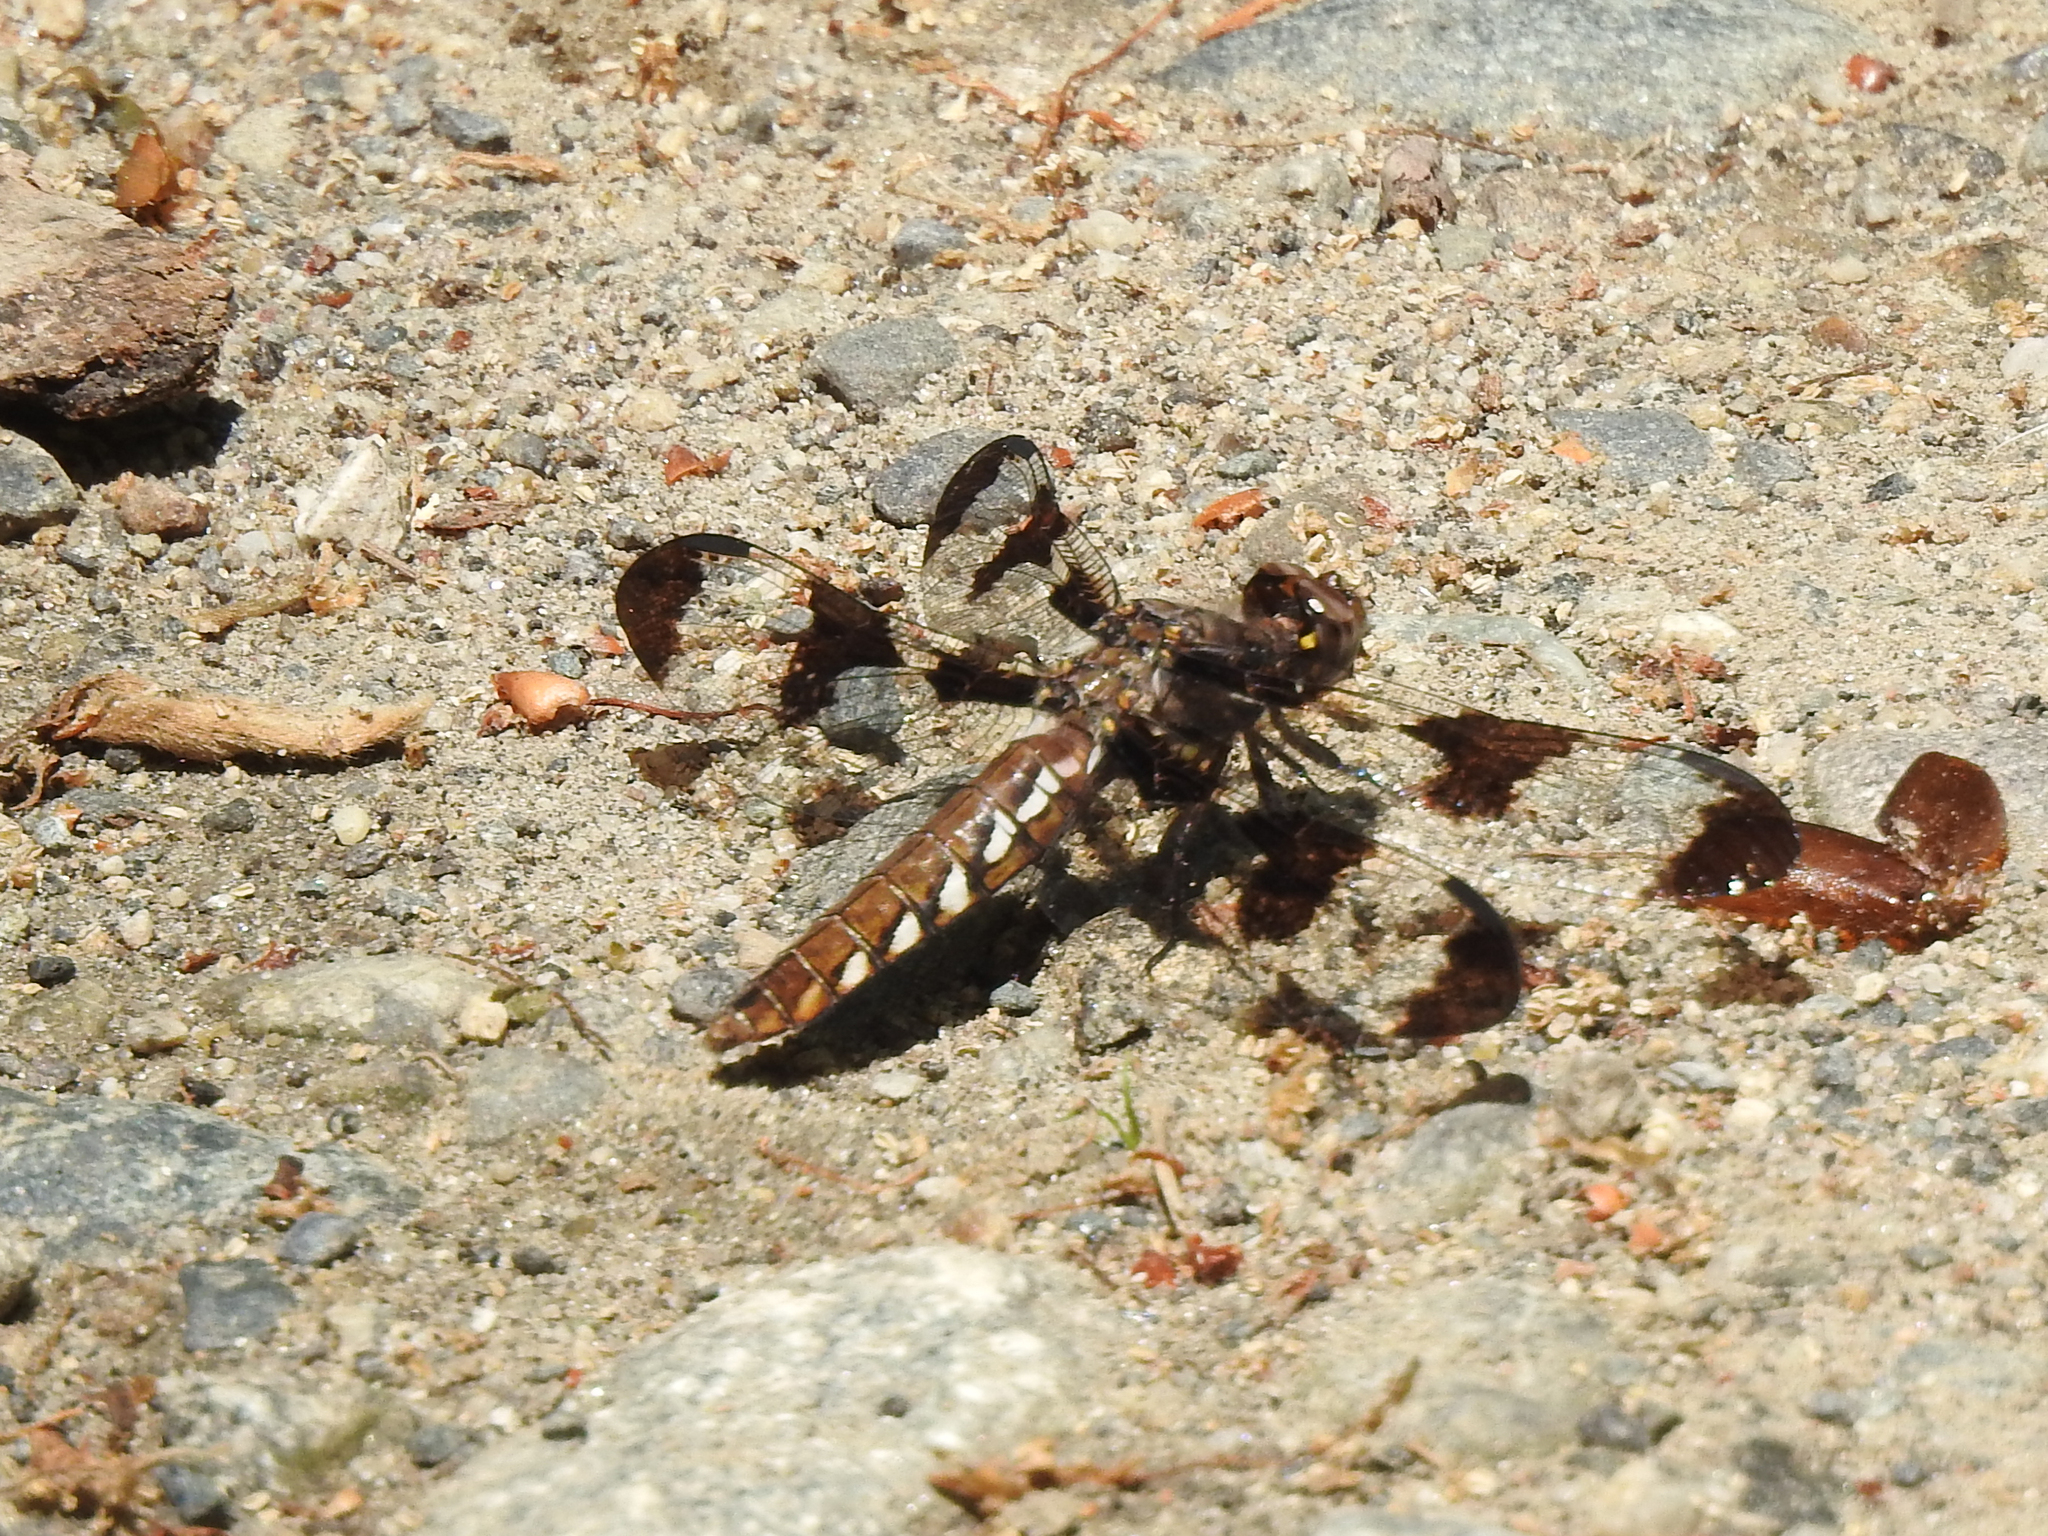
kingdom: Animalia
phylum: Arthropoda
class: Insecta
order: Odonata
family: Libellulidae
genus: Plathemis
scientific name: Plathemis lydia
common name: Common whitetail
